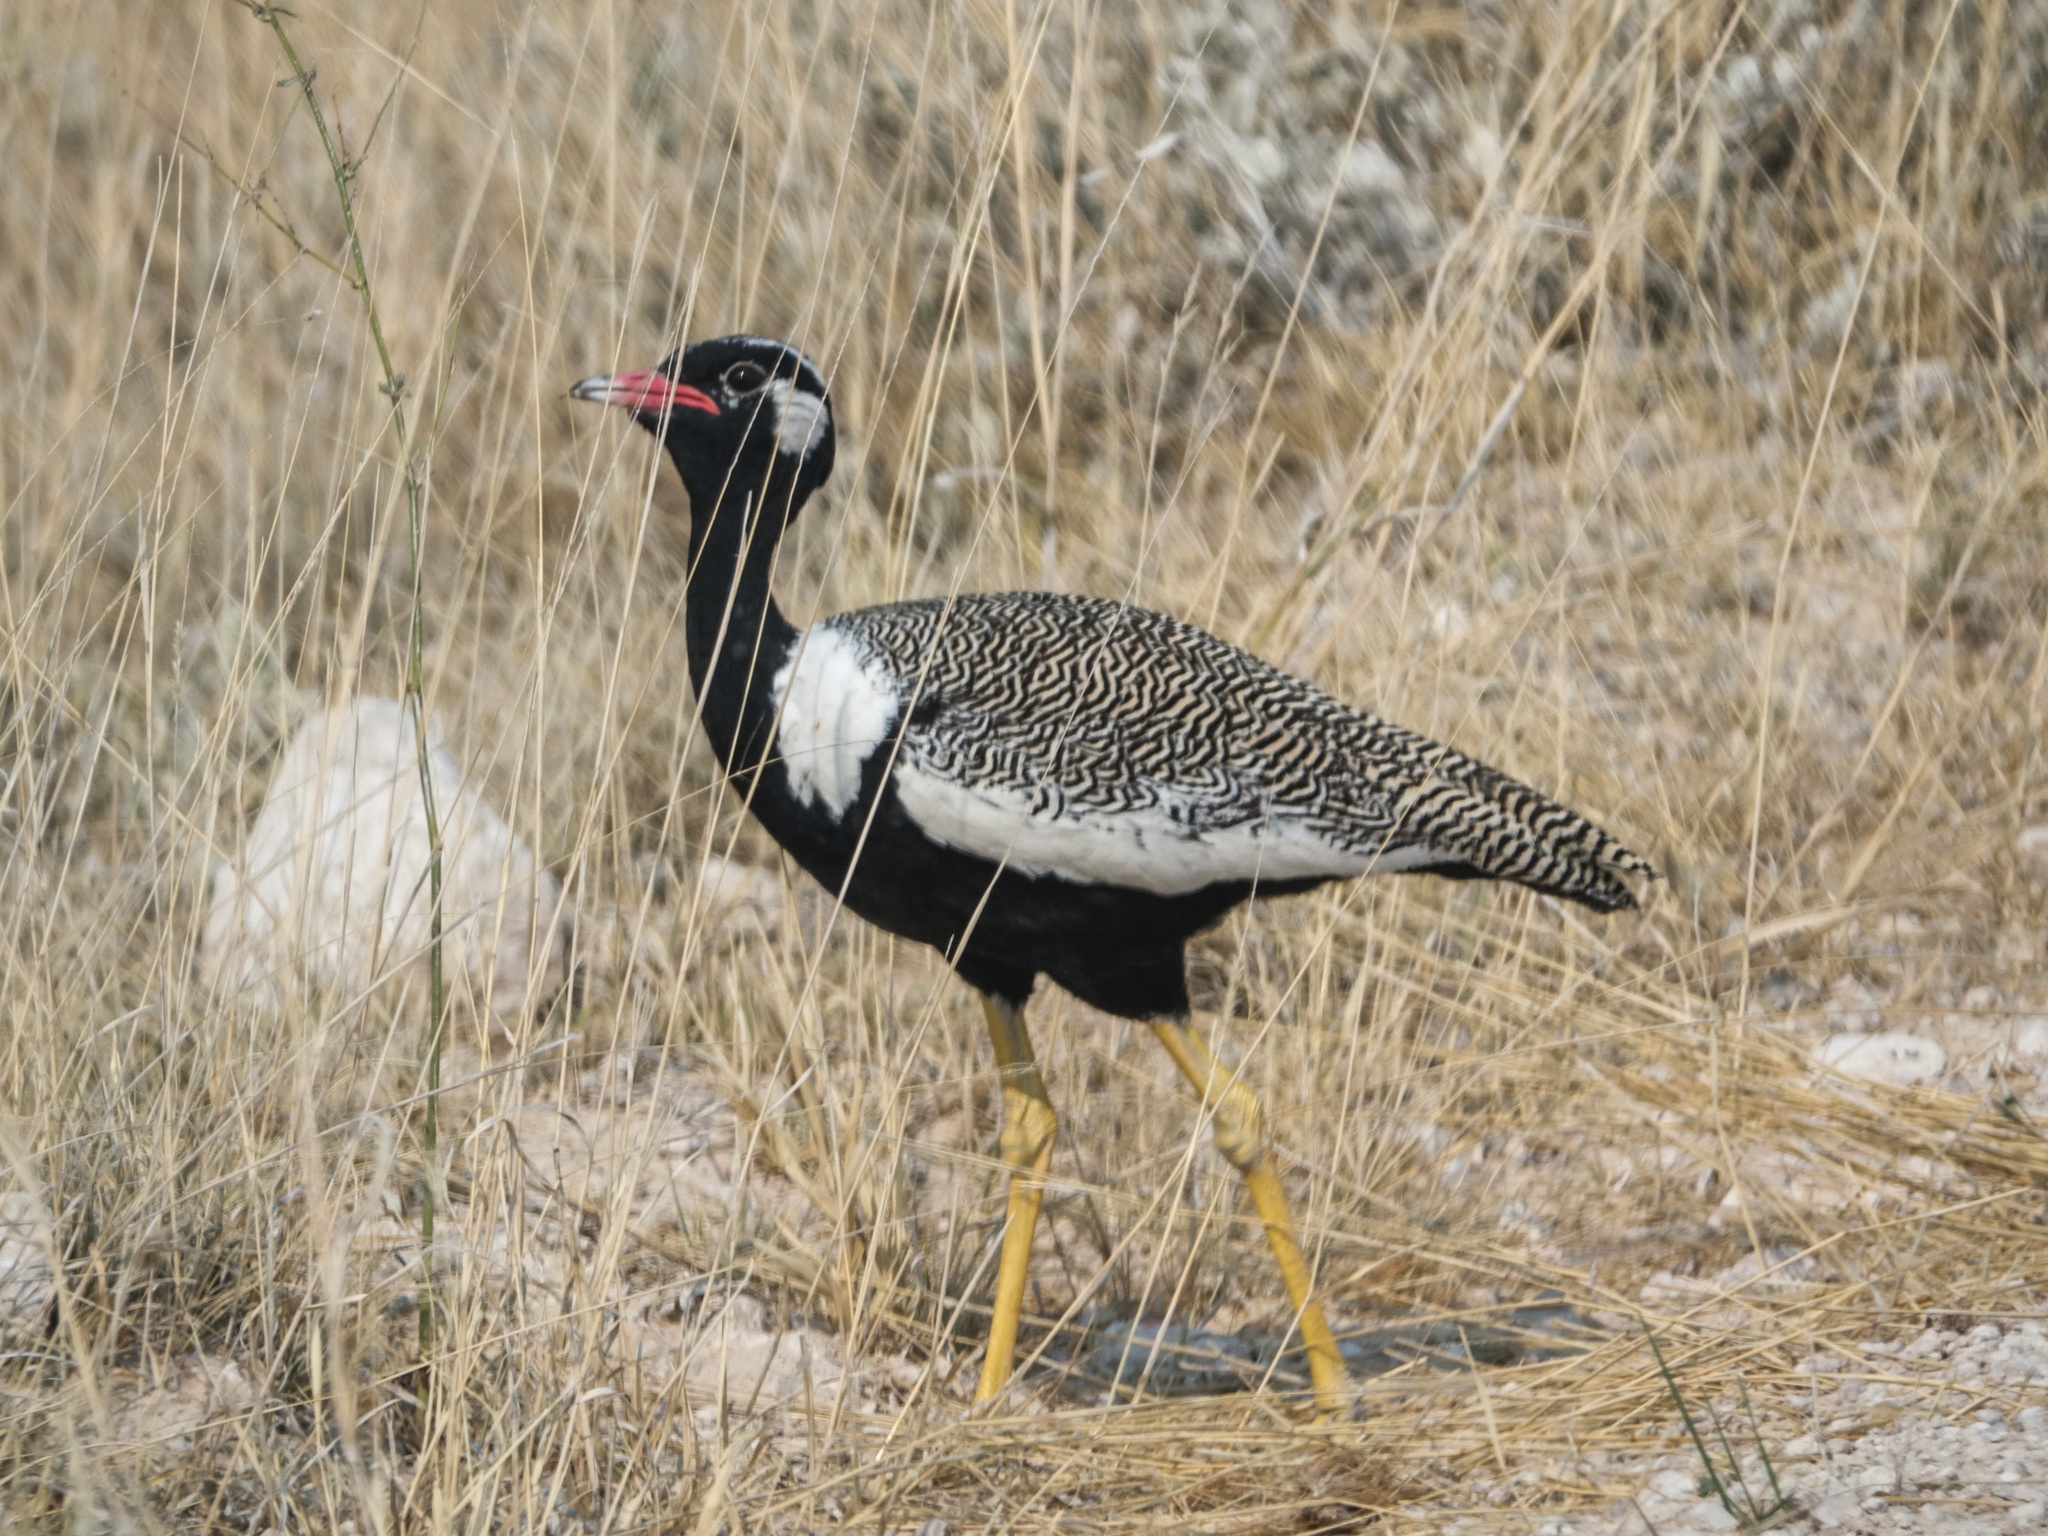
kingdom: Animalia
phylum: Chordata
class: Aves
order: Otidiformes
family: Otididae
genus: Afrotis
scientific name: Afrotis afraoides
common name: Northern black korhaan
